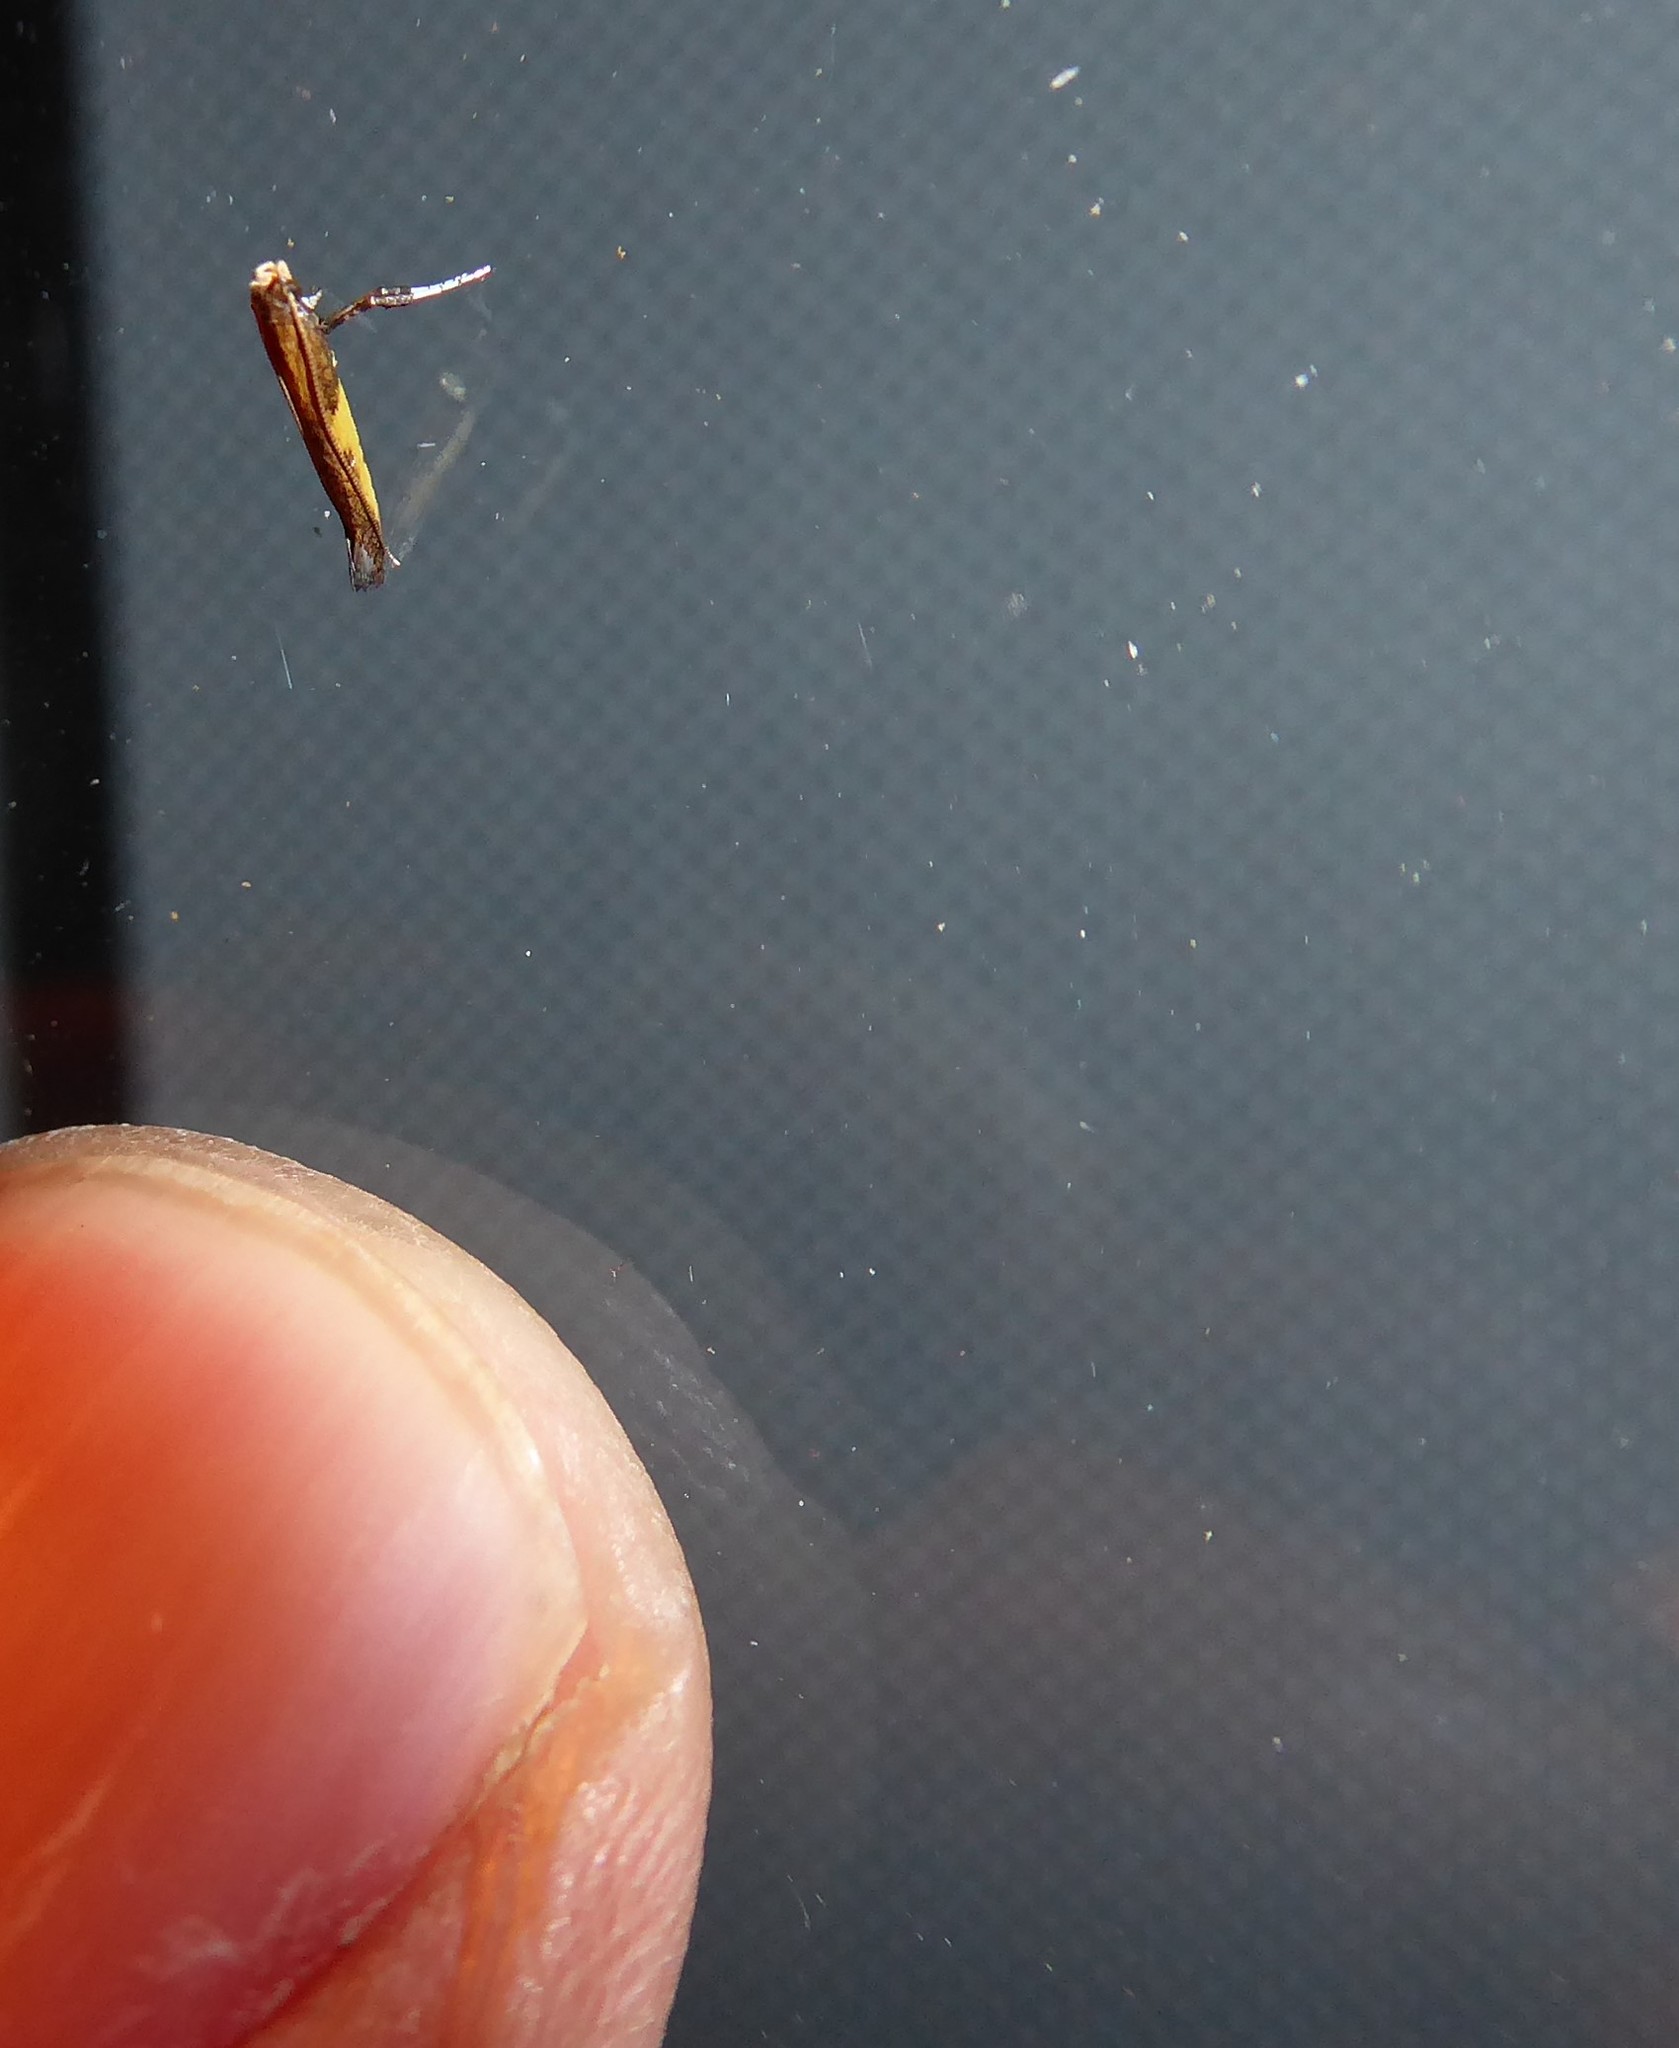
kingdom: Animalia
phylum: Arthropoda
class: Insecta
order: Lepidoptera
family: Gracillariidae
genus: Caloptilia
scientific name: Caloptilia azaleella
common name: Azalea leafminer
